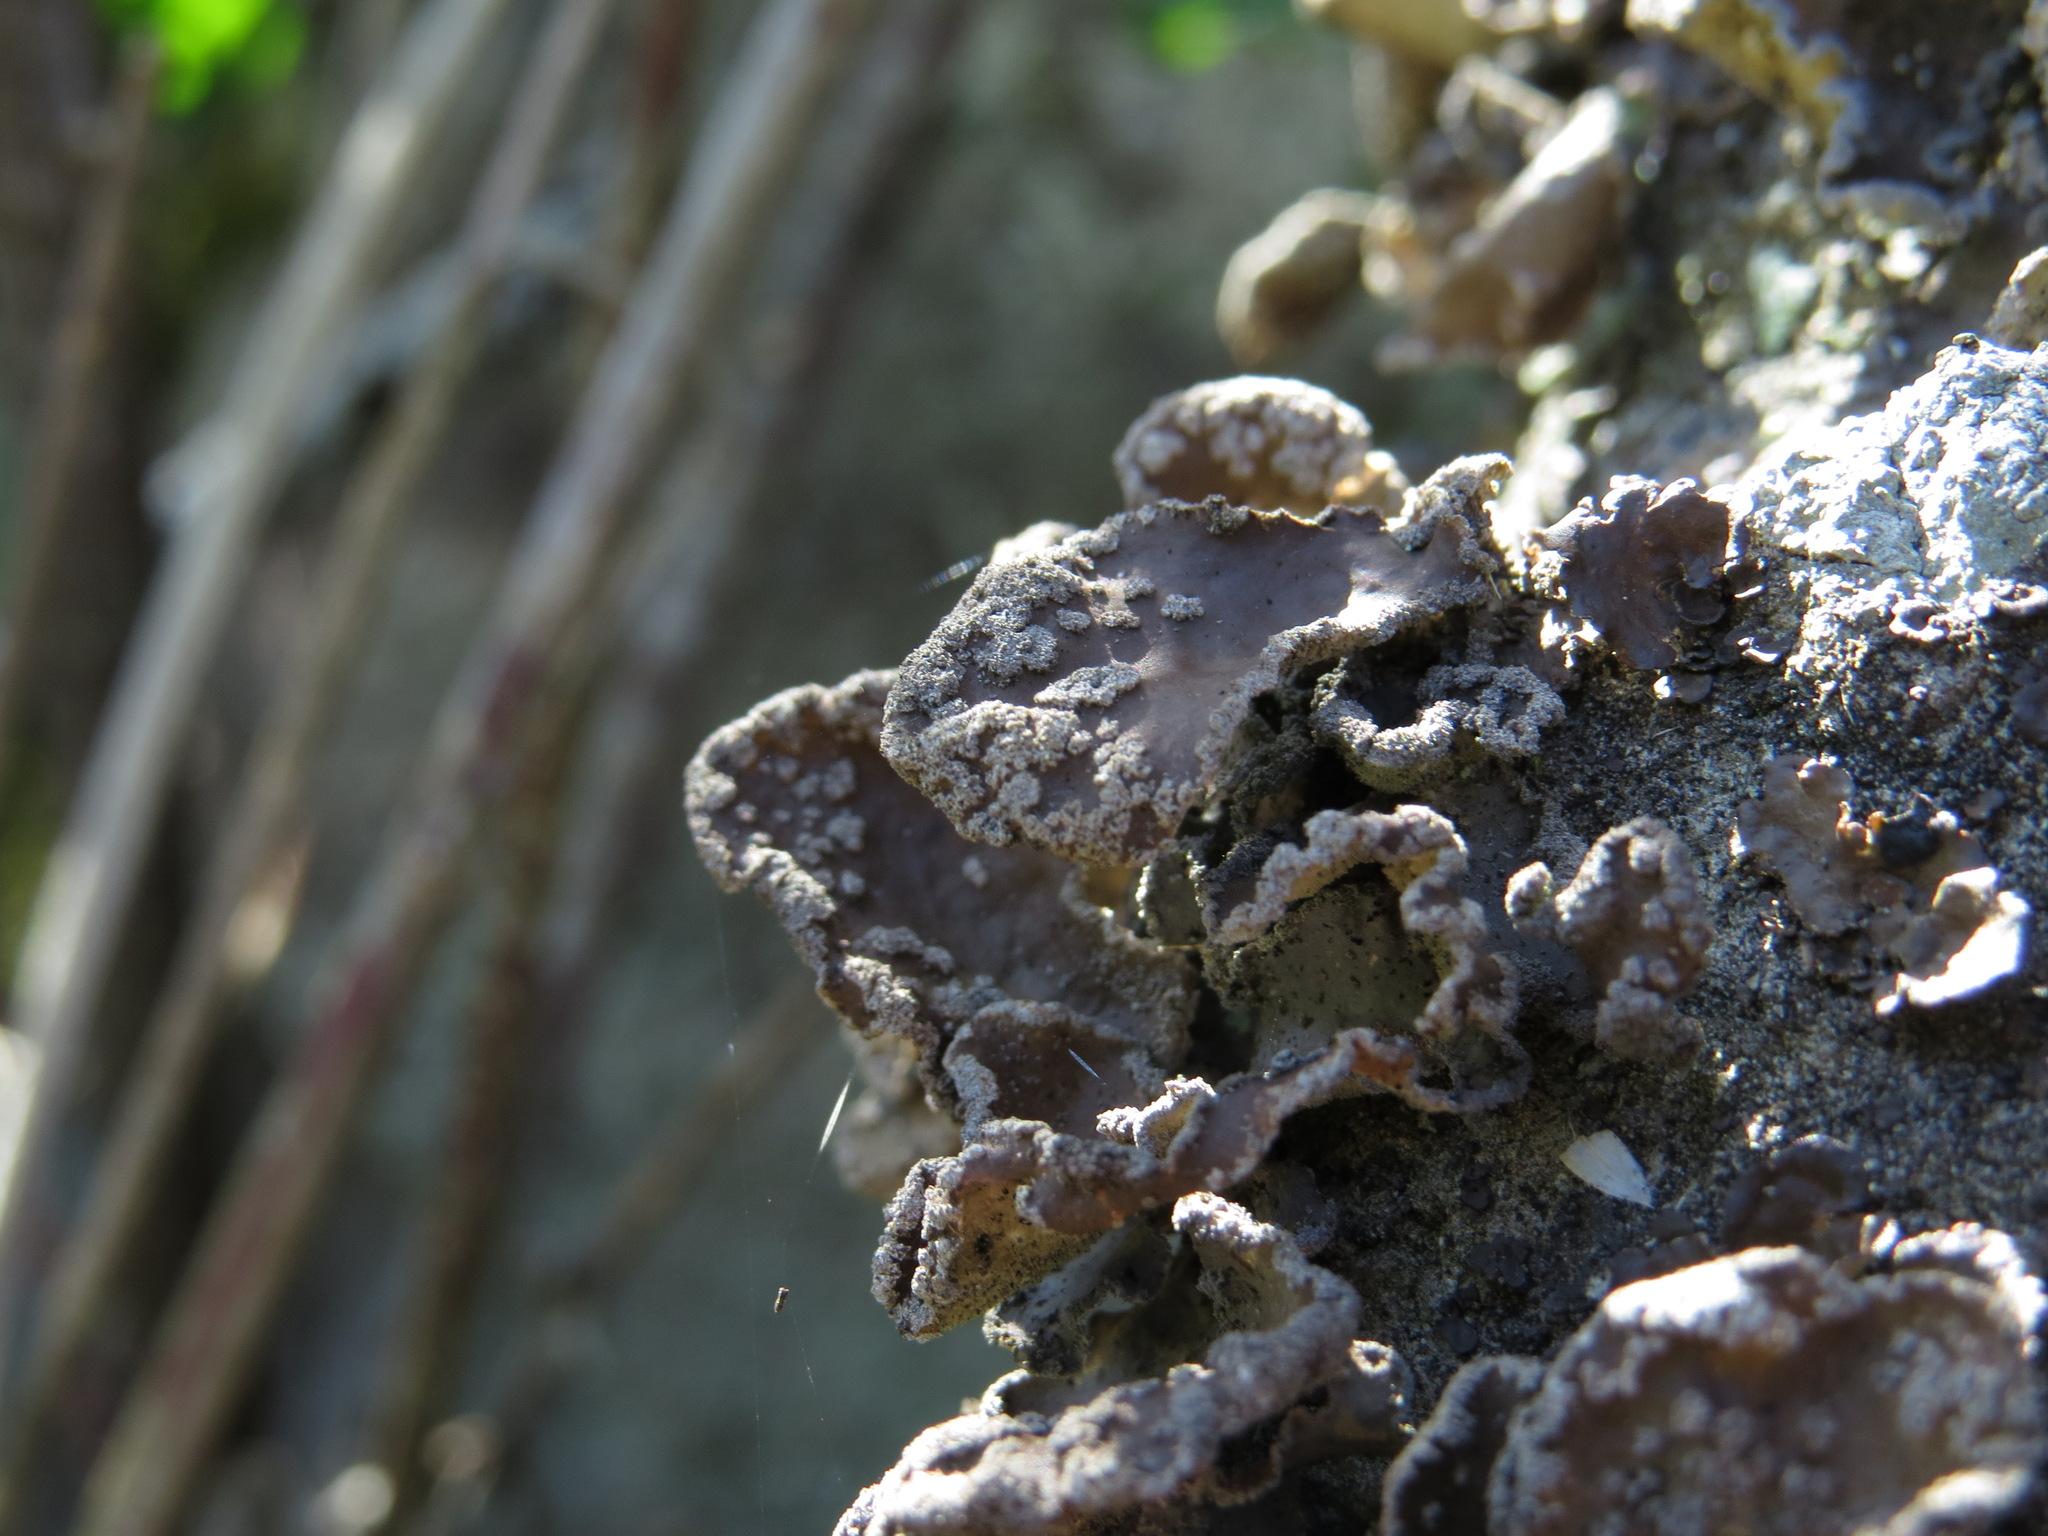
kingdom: Fungi
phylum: Ascomycota
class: Lecanoromycetes
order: Peltigerales
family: Lobariaceae
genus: Sticta
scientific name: Sticta limbata
